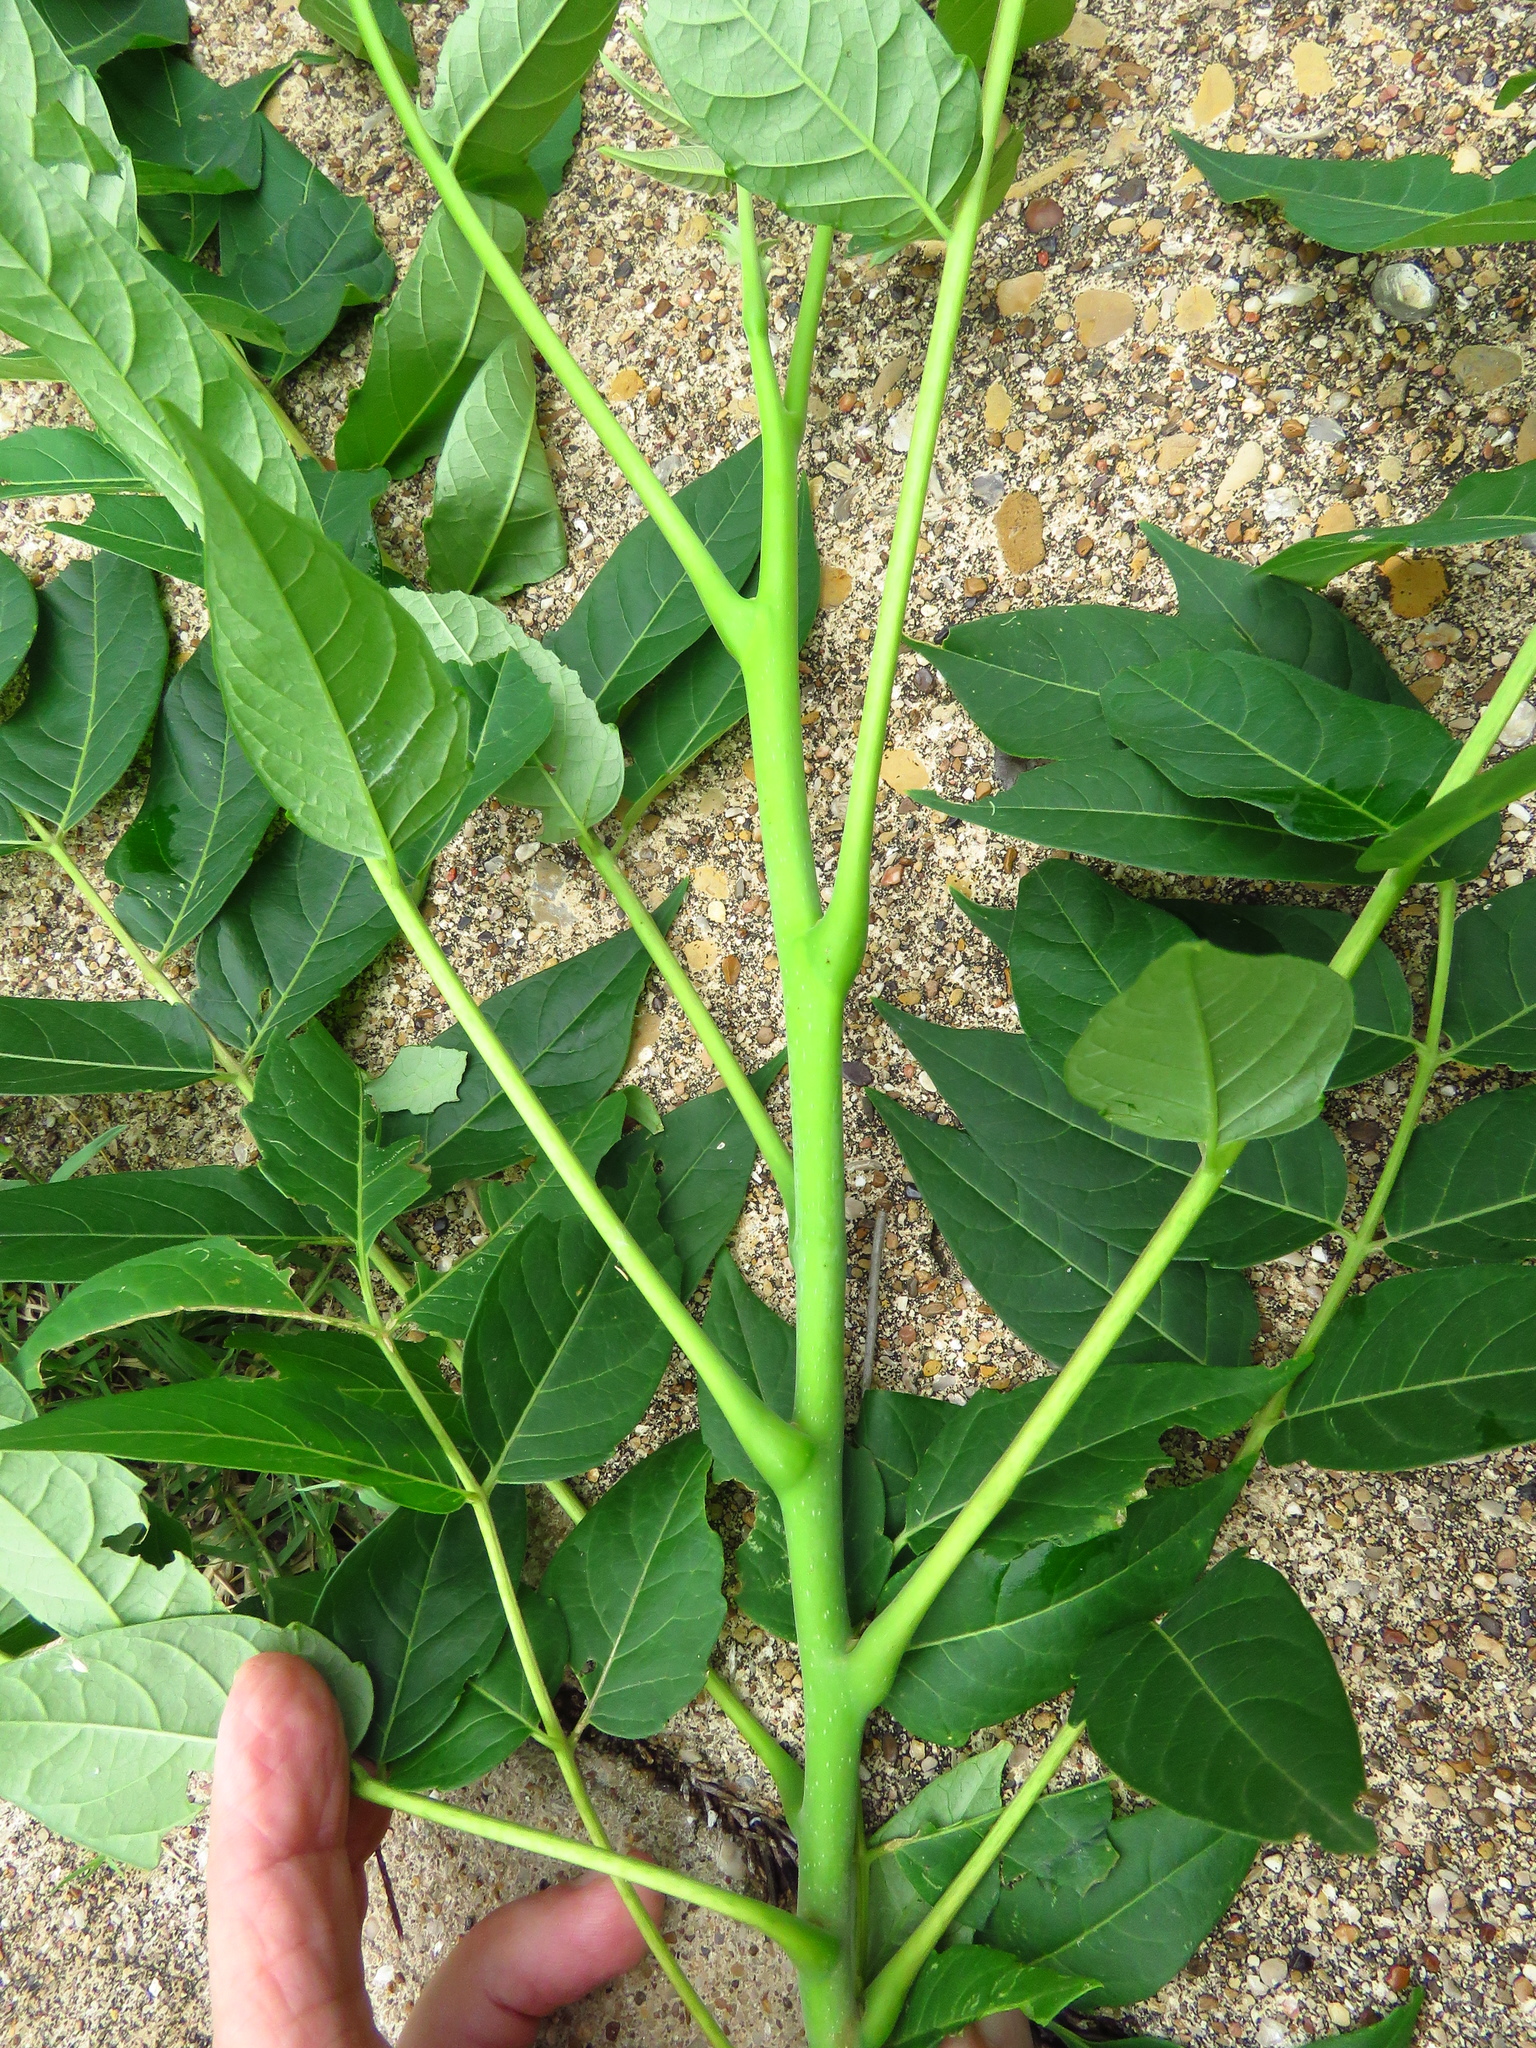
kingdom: Plantae
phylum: Tracheophyta
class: Magnoliopsida
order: Sapindales
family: Simaroubaceae
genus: Ailanthus
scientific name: Ailanthus altissima
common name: Tree-of-heaven
